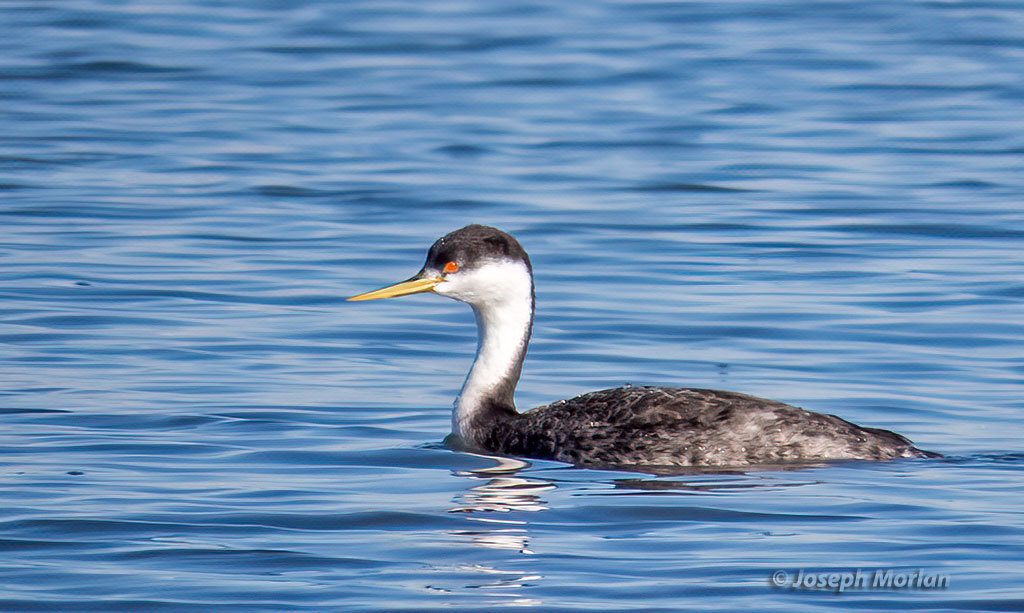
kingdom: Animalia
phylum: Chordata
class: Aves
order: Podicipediformes
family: Podicipedidae
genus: Aechmophorus
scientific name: Aechmophorus occidentalis
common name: Western grebe
